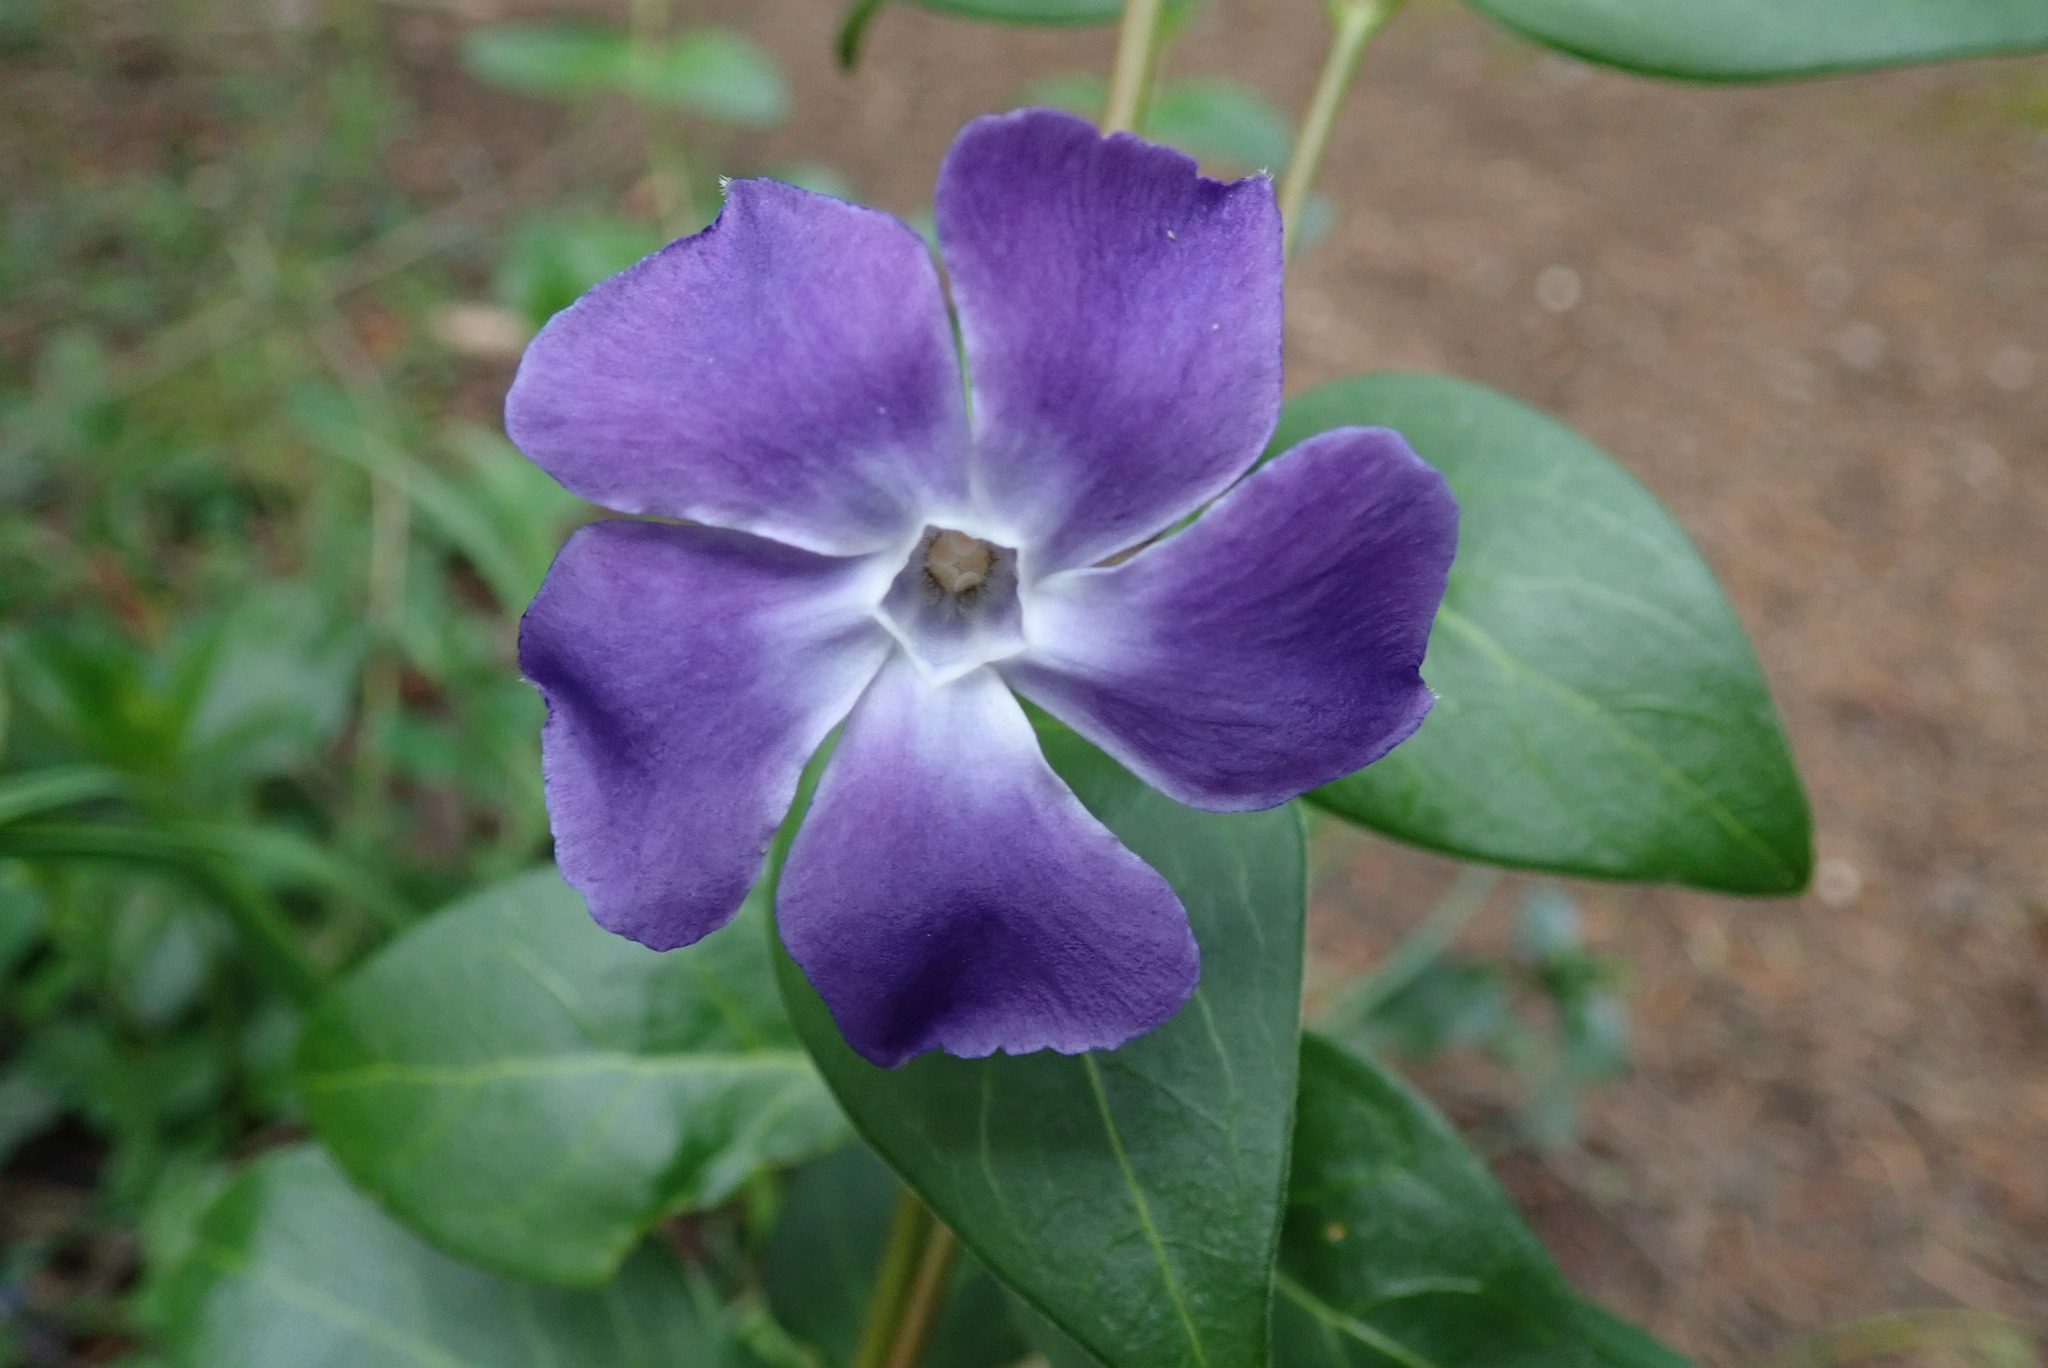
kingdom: Plantae
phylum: Tracheophyta
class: Magnoliopsida
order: Gentianales
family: Apocynaceae
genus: Vinca
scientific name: Vinca major
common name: Greater periwinkle
